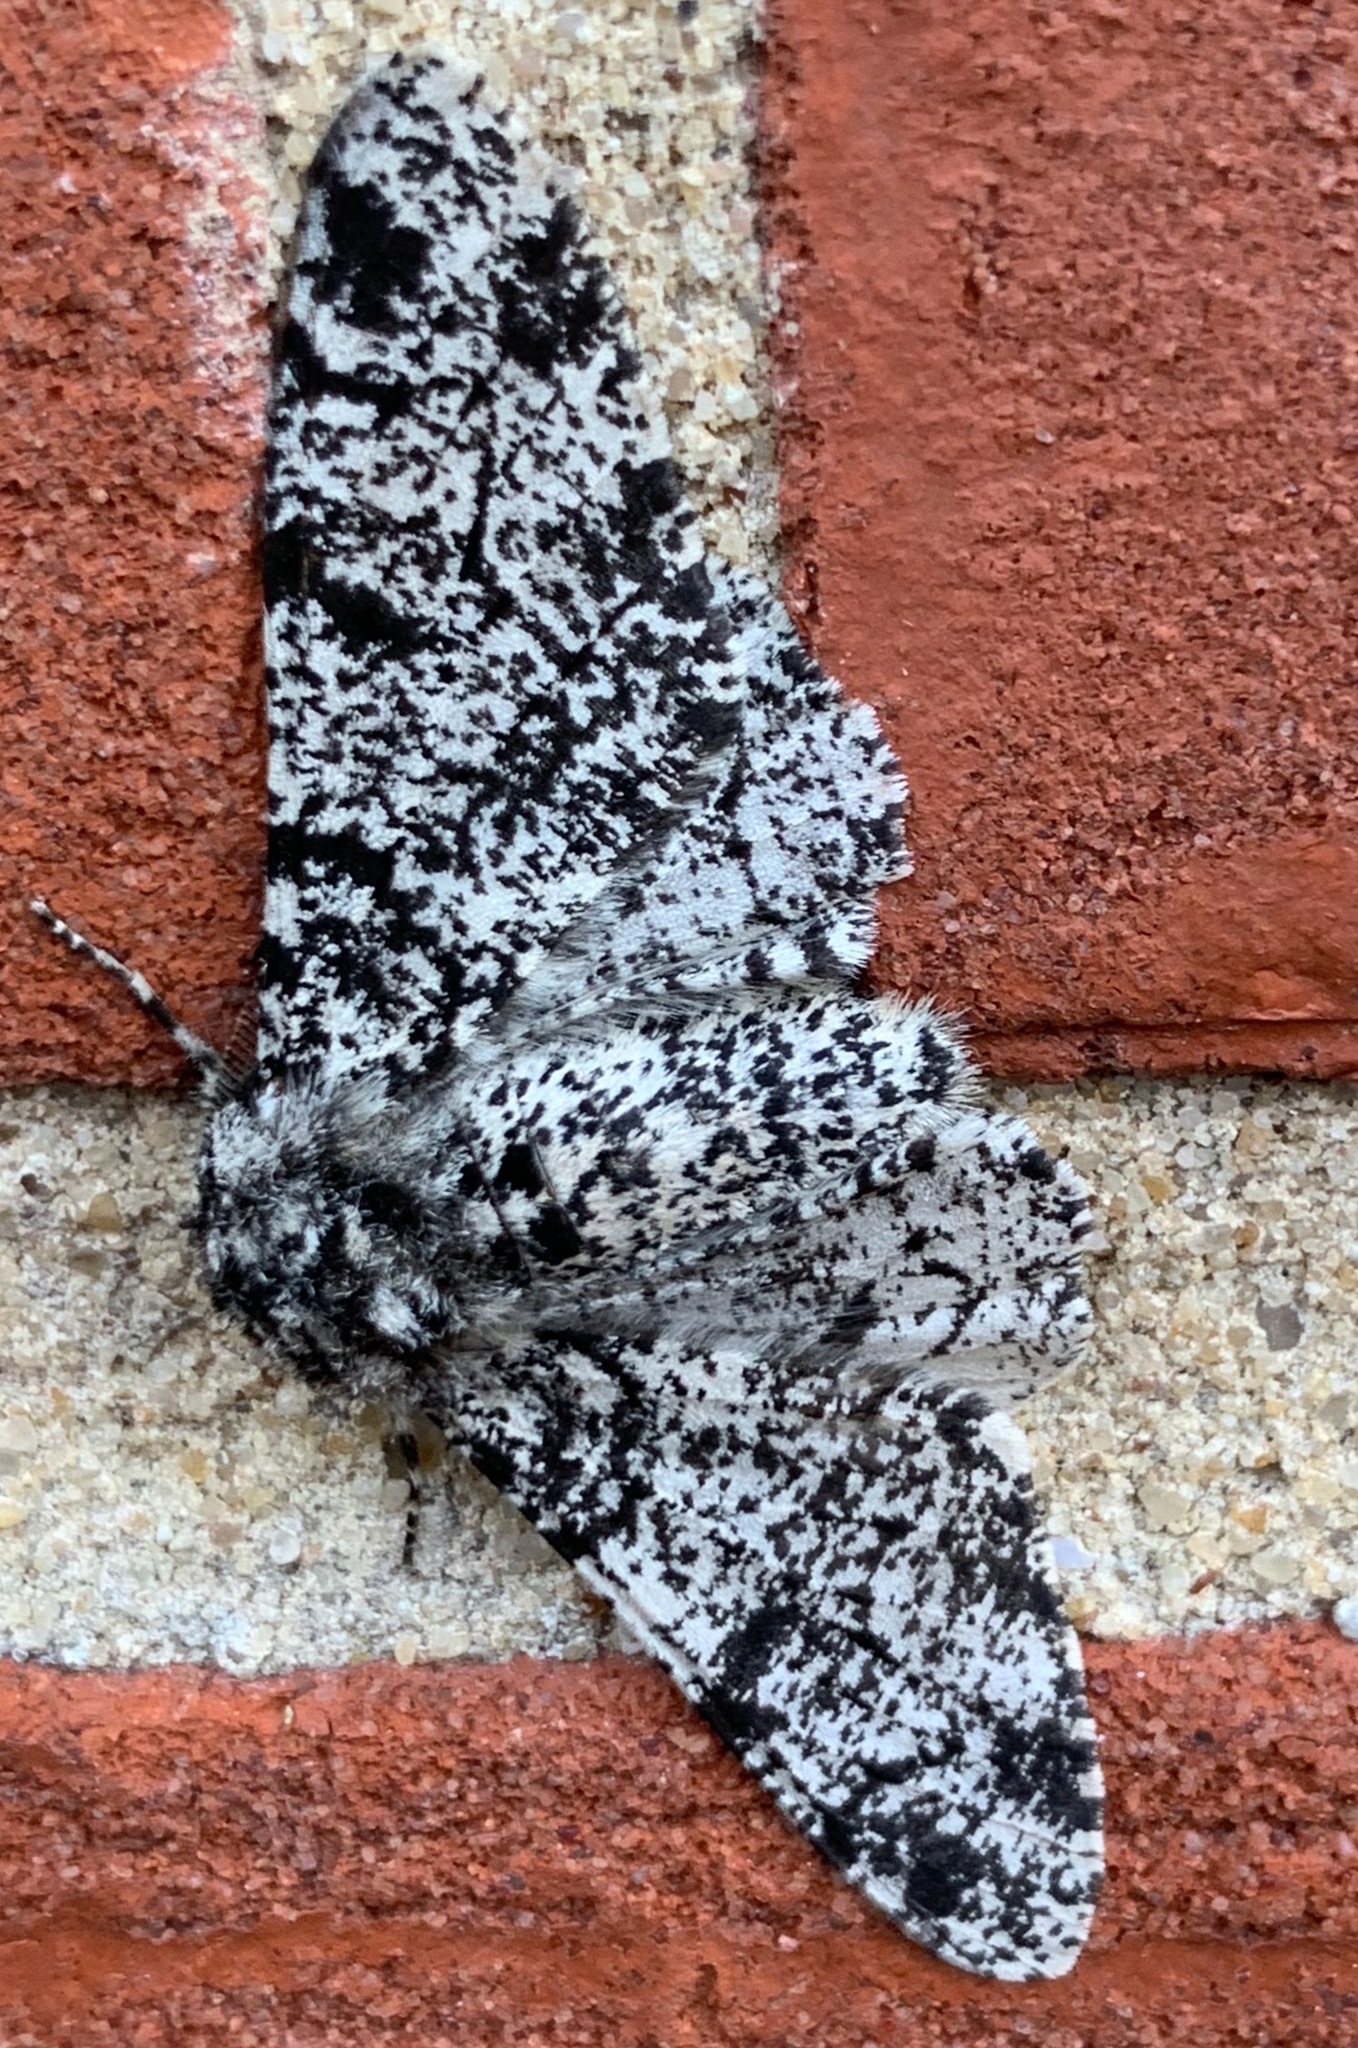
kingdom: Animalia
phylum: Arthropoda
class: Insecta
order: Lepidoptera
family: Geometridae
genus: Biston
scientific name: Biston betularia
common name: Peppered moth
